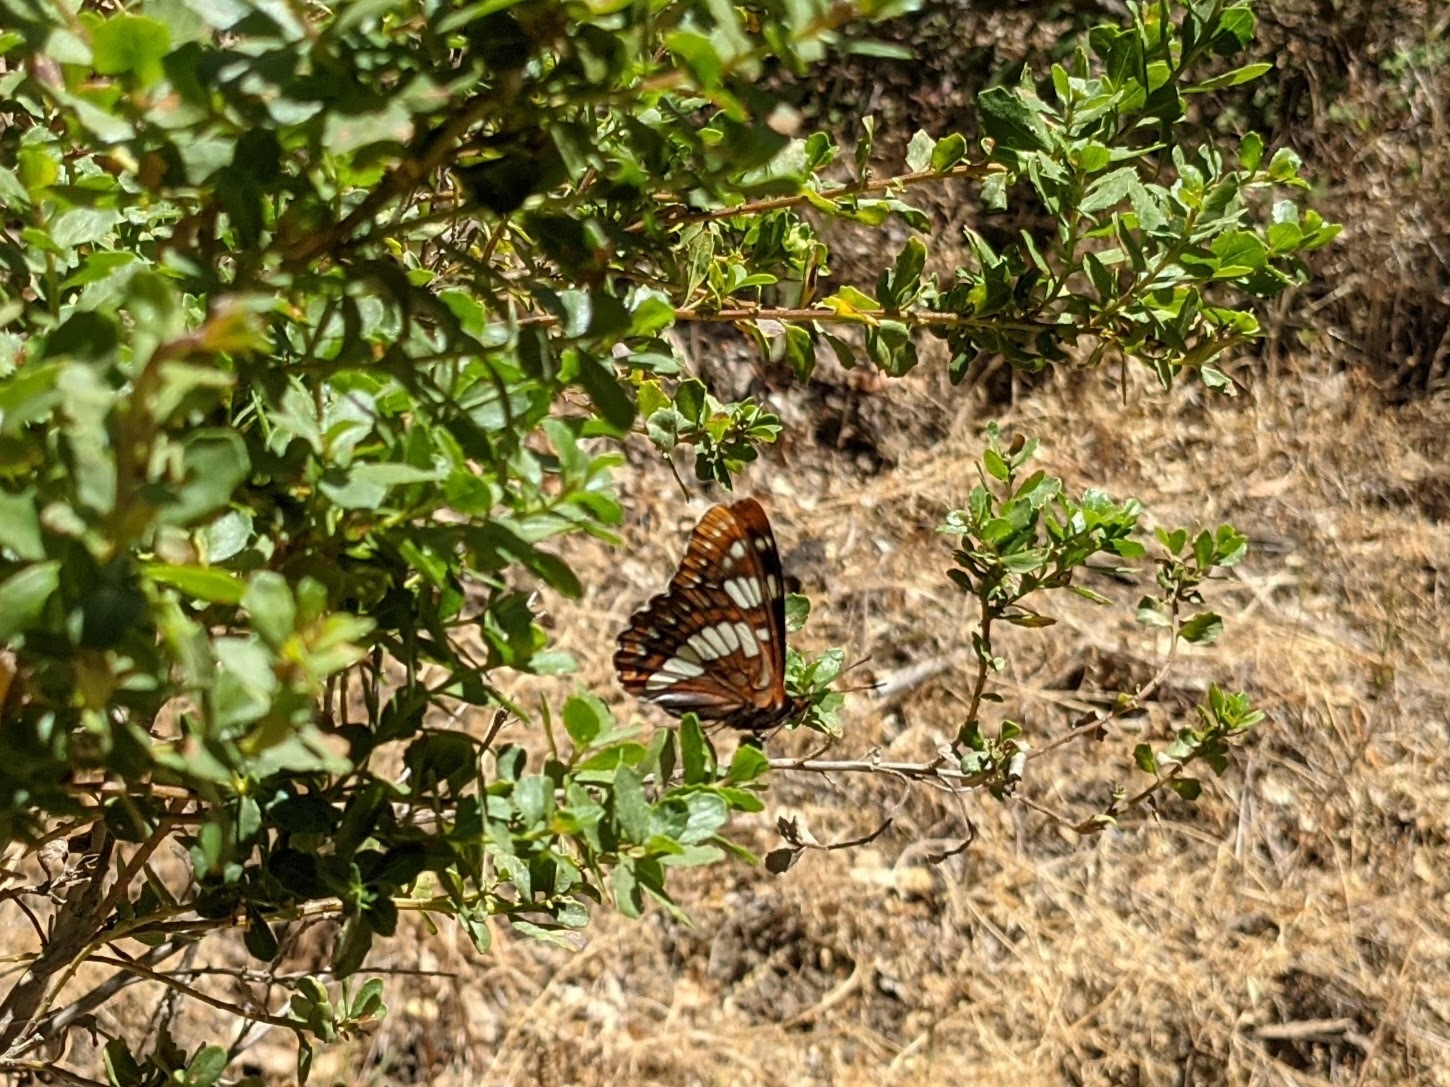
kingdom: Animalia
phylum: Arthropoda
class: Insecta
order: Lepidoptera
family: Nymphalidae
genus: Limenitis
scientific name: Limenitis lorquini
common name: Lorquin's admiral
